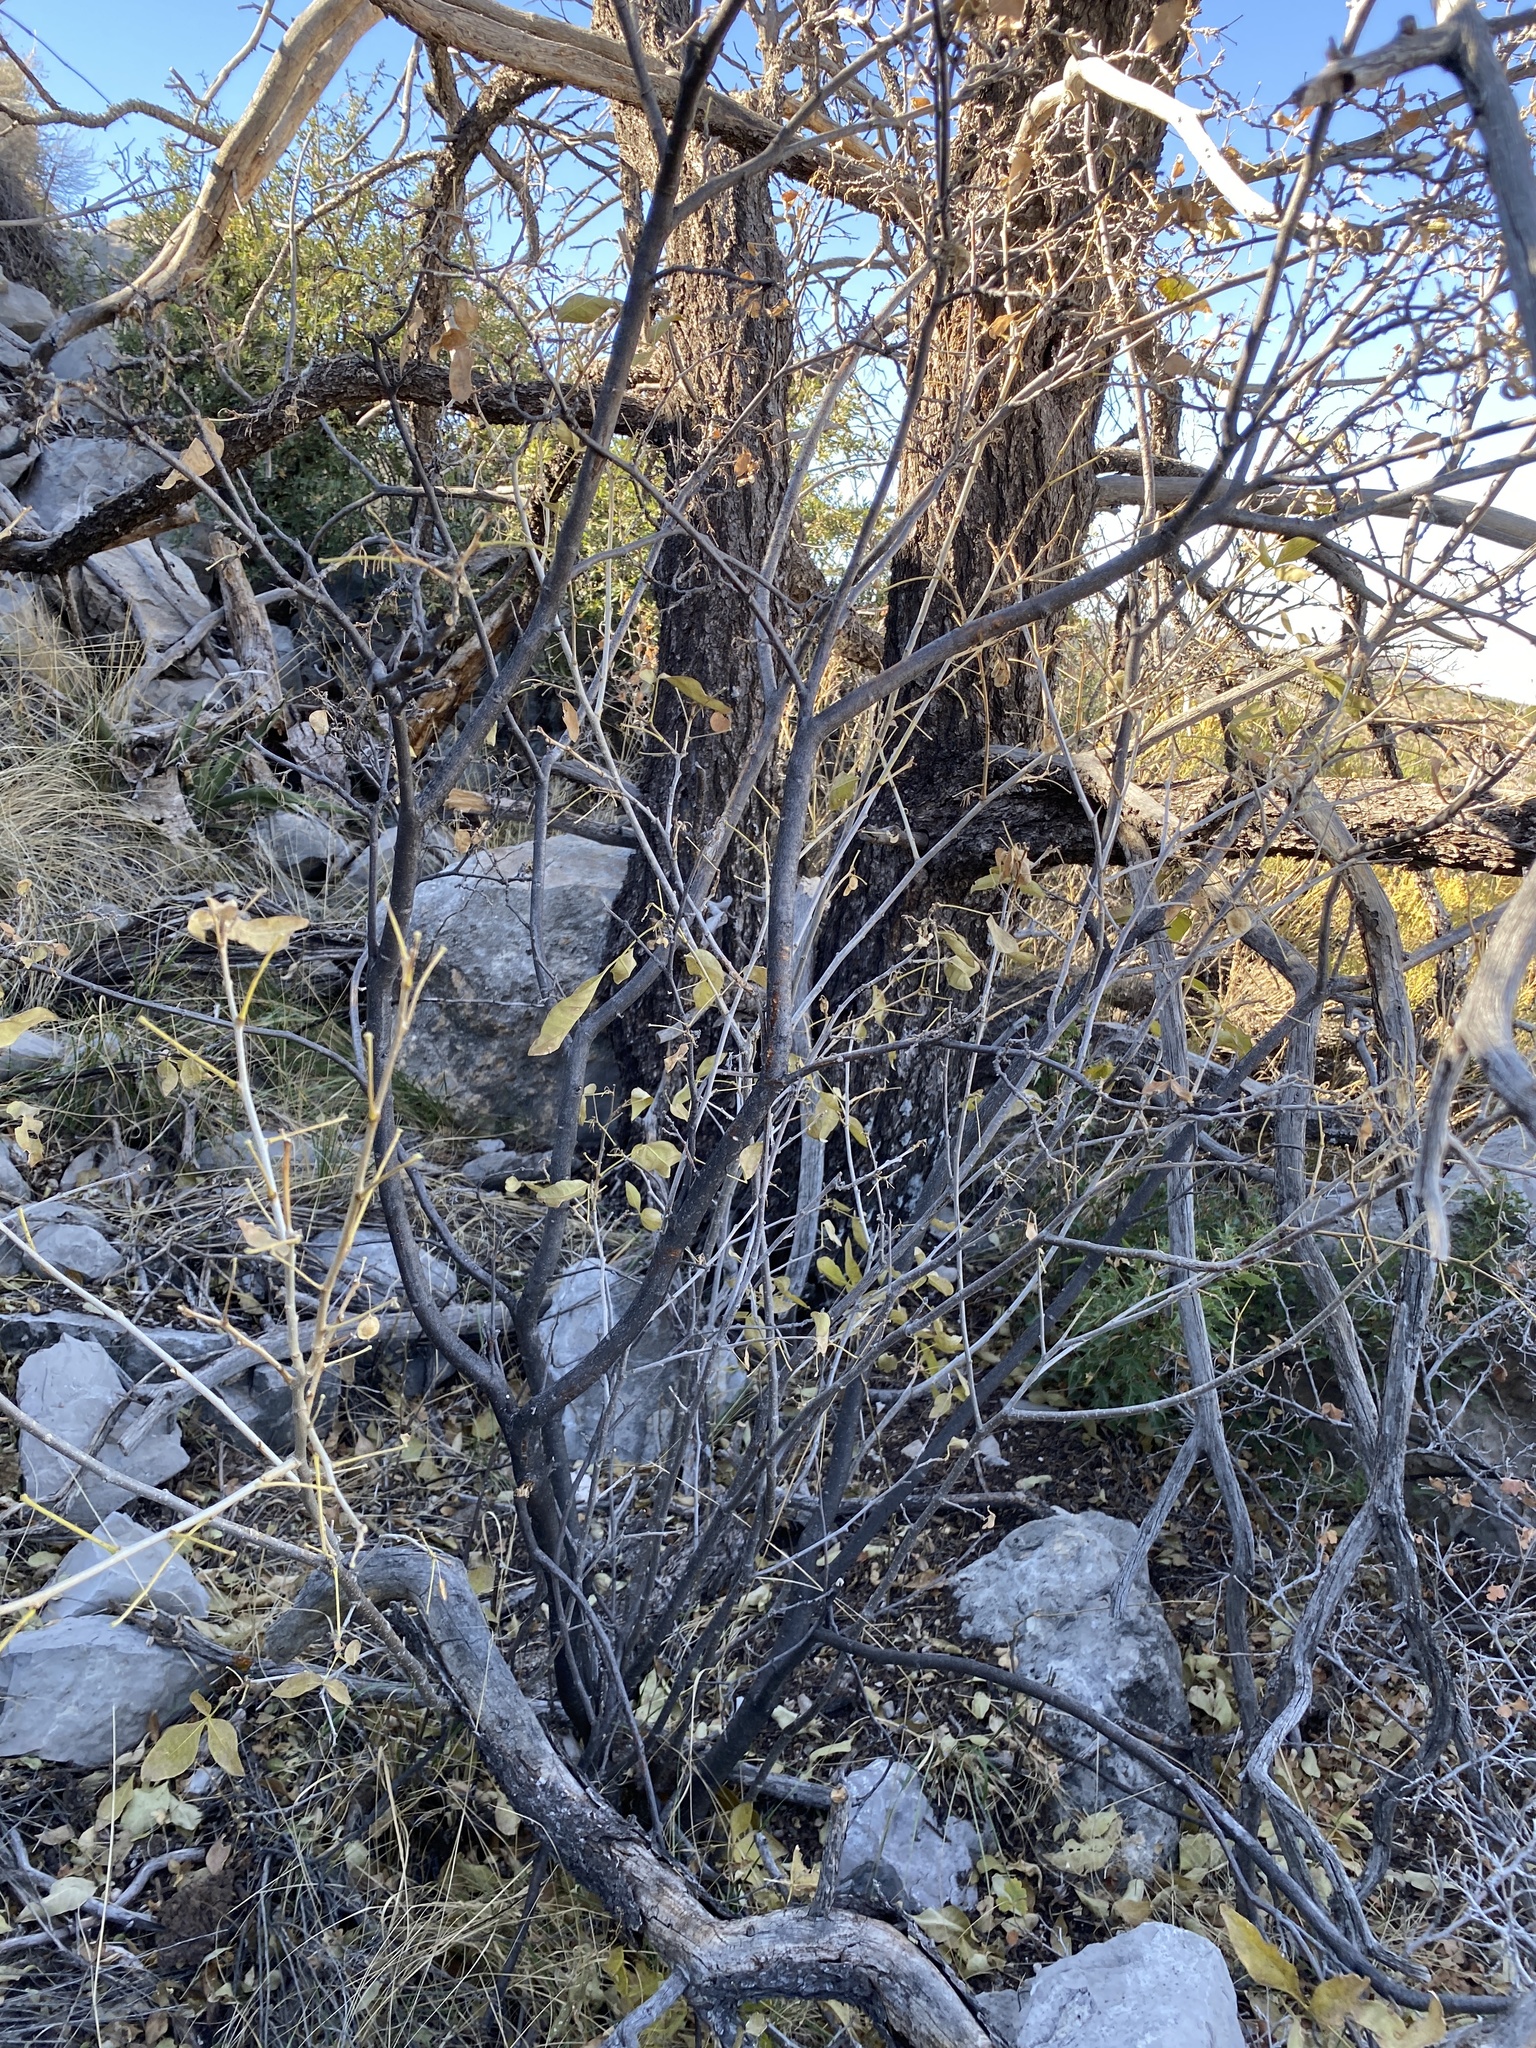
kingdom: Plantae
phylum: Tracheophyta
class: Magnoliopsida
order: Sapindales
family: Rutaceae
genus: Ptelea
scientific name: Ptelea trifoliata
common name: Common hop-tree
